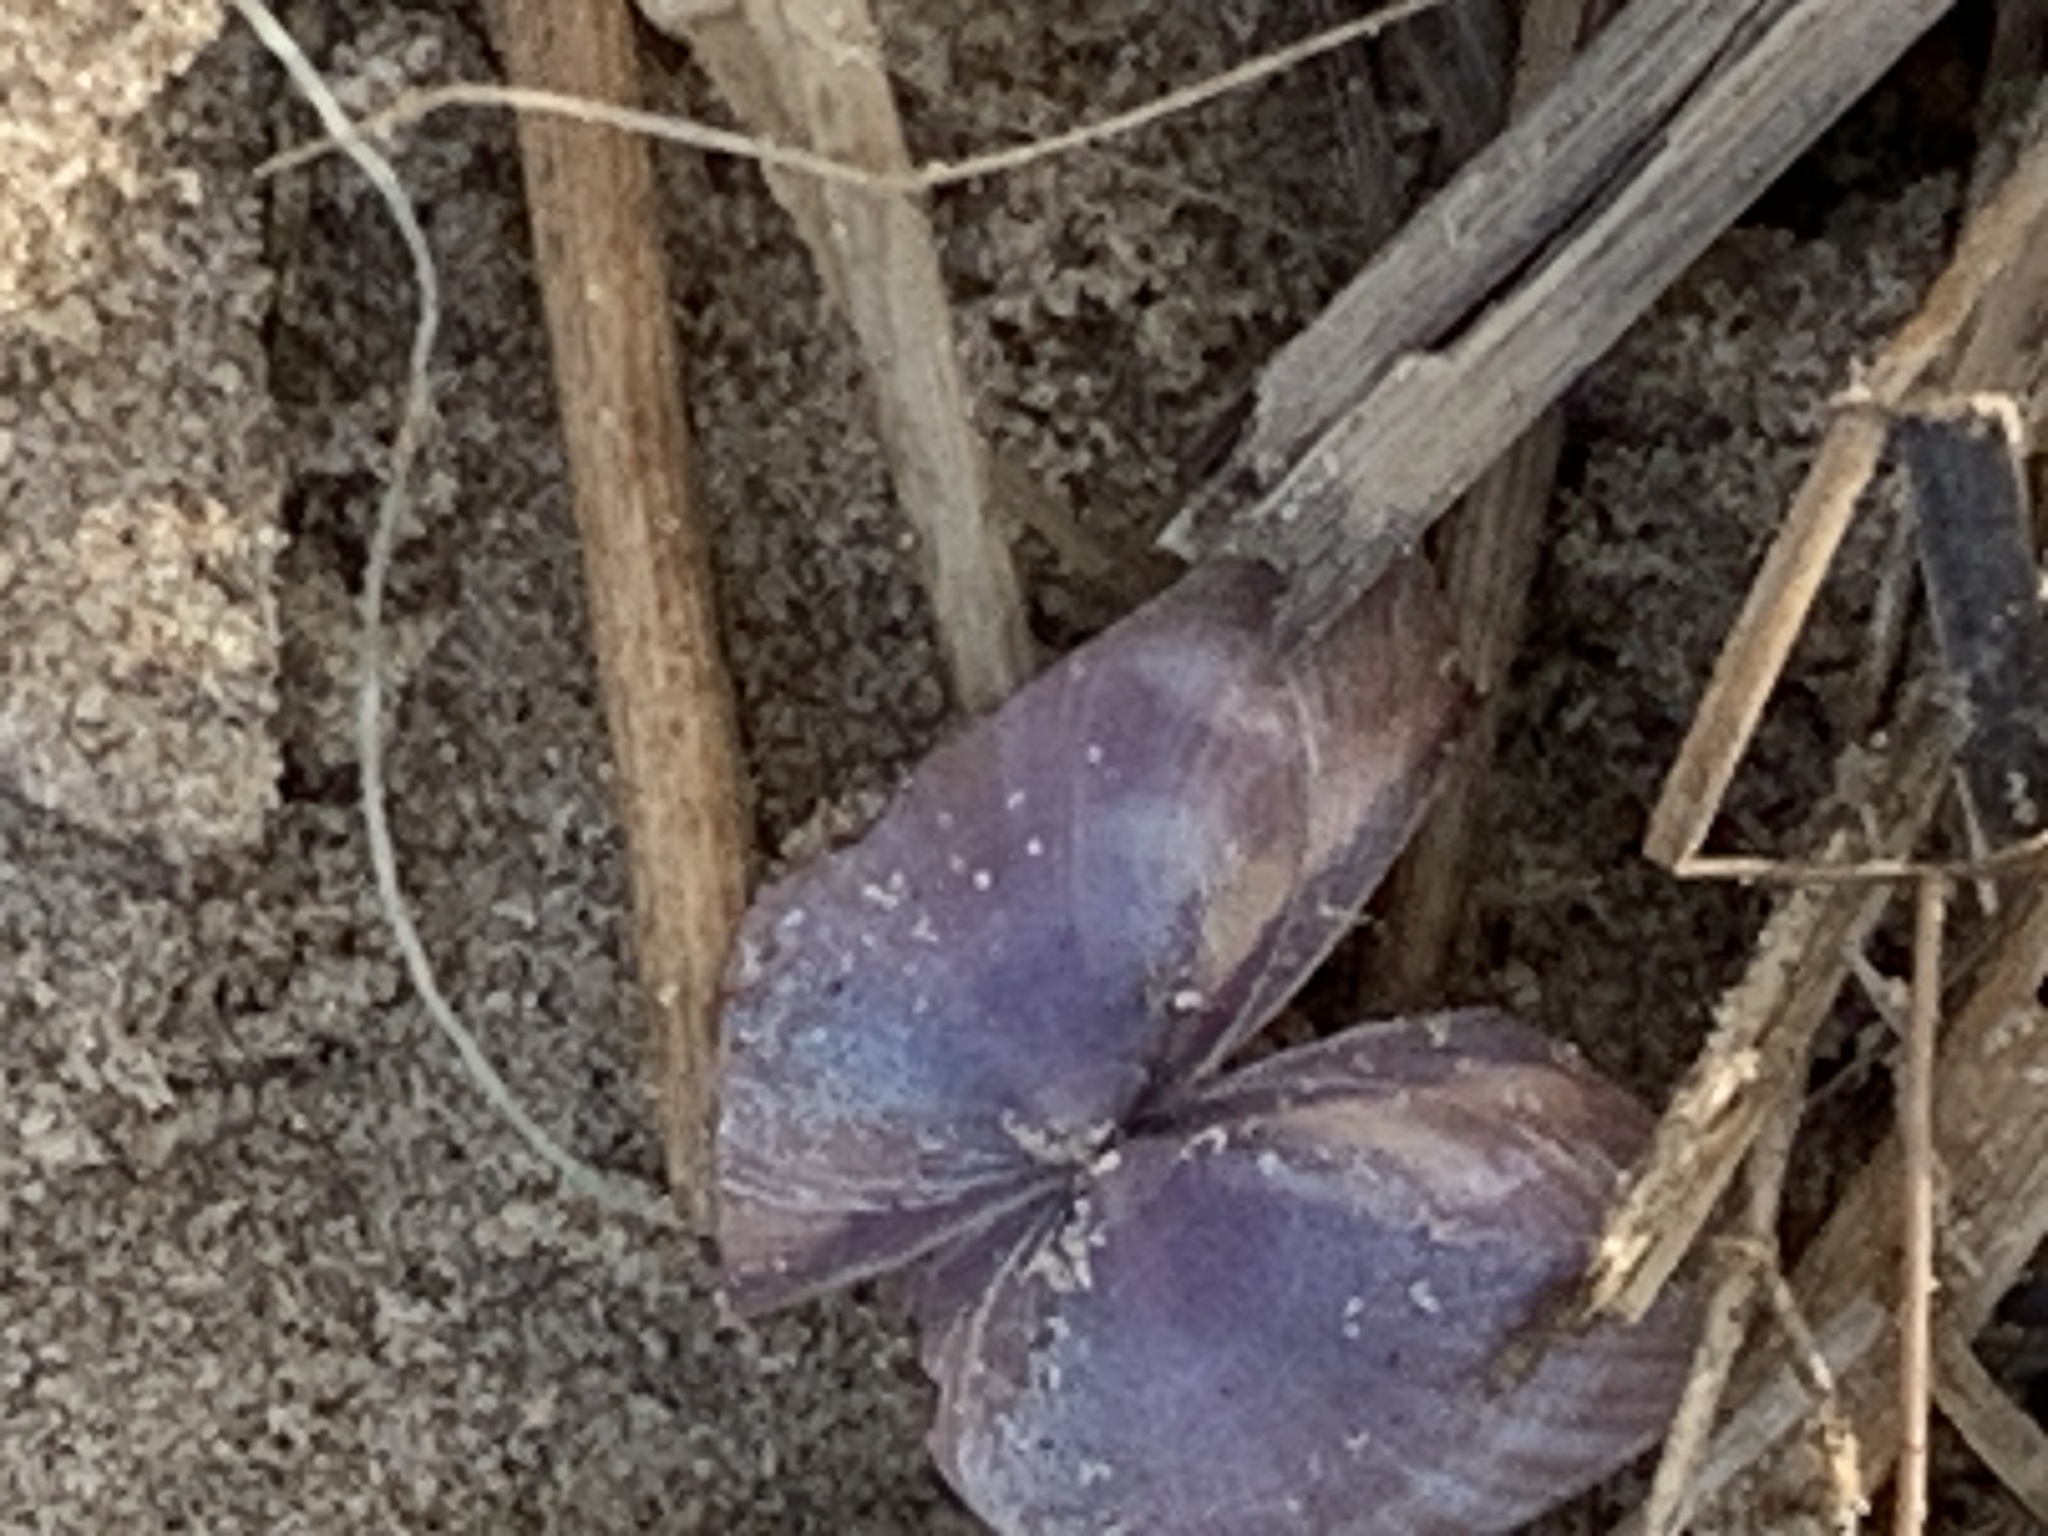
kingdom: Animalia
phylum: Mollusca
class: Bivalvia
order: Venerida
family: Mactridae
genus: Mactra
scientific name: Mactra stultorum
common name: Rayed trough shell
